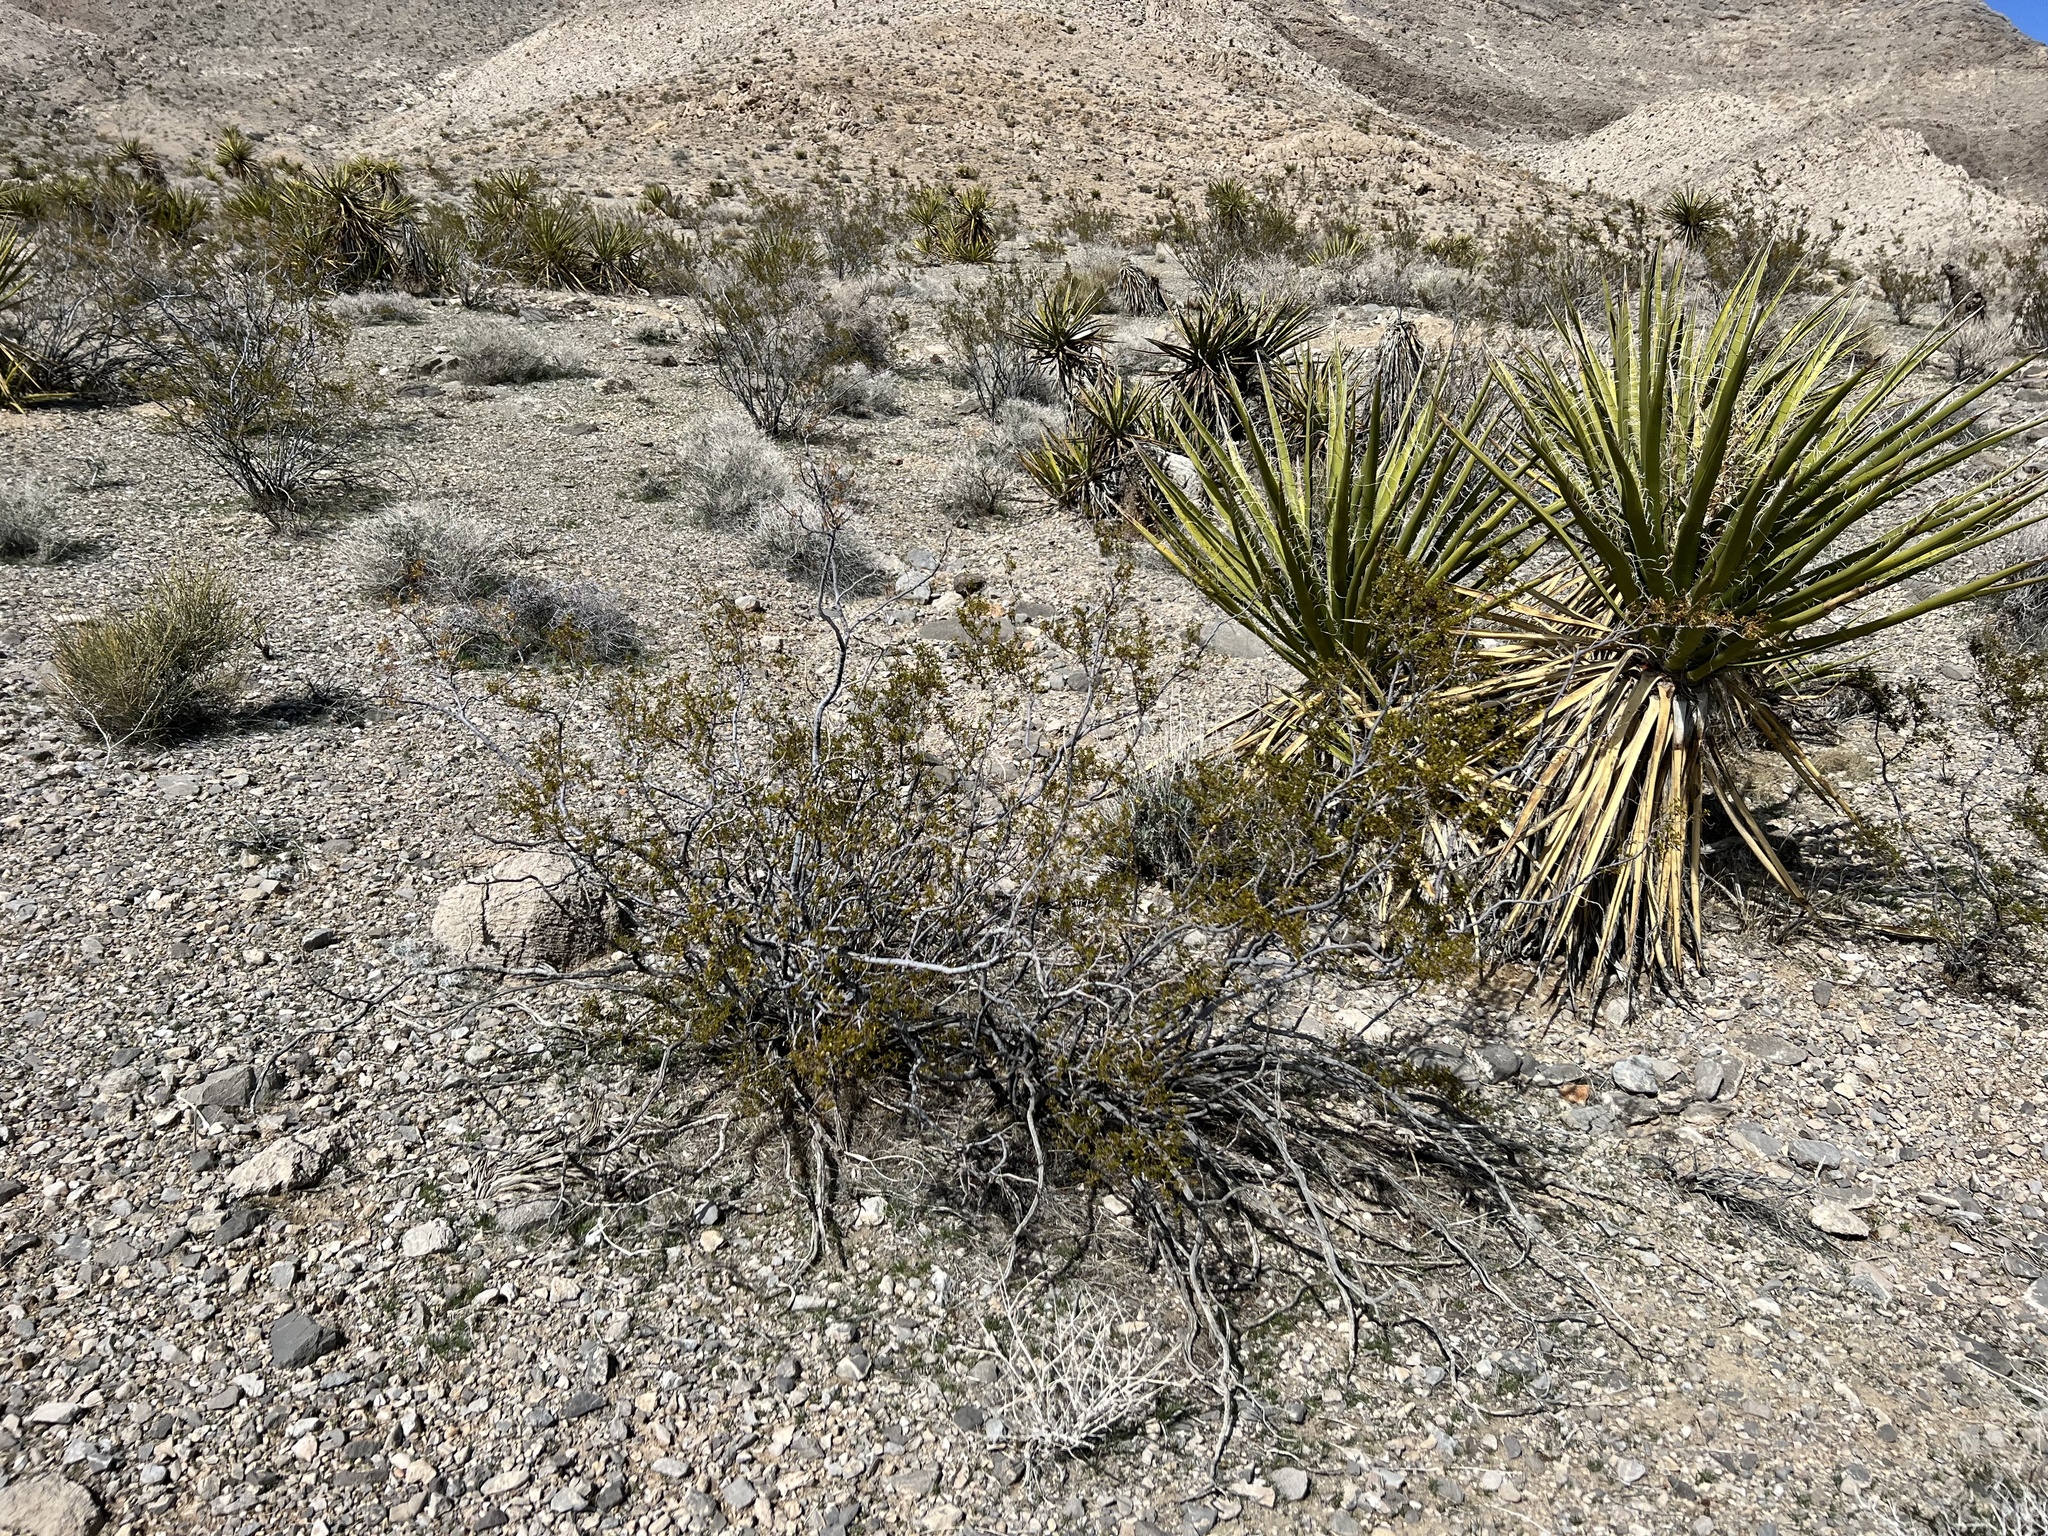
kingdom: Plantae
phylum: Tracheophyta
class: Magnoliopsida
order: Zygophyllales
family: Zygophyllaceae
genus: Larrea
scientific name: Larrea tridentata
